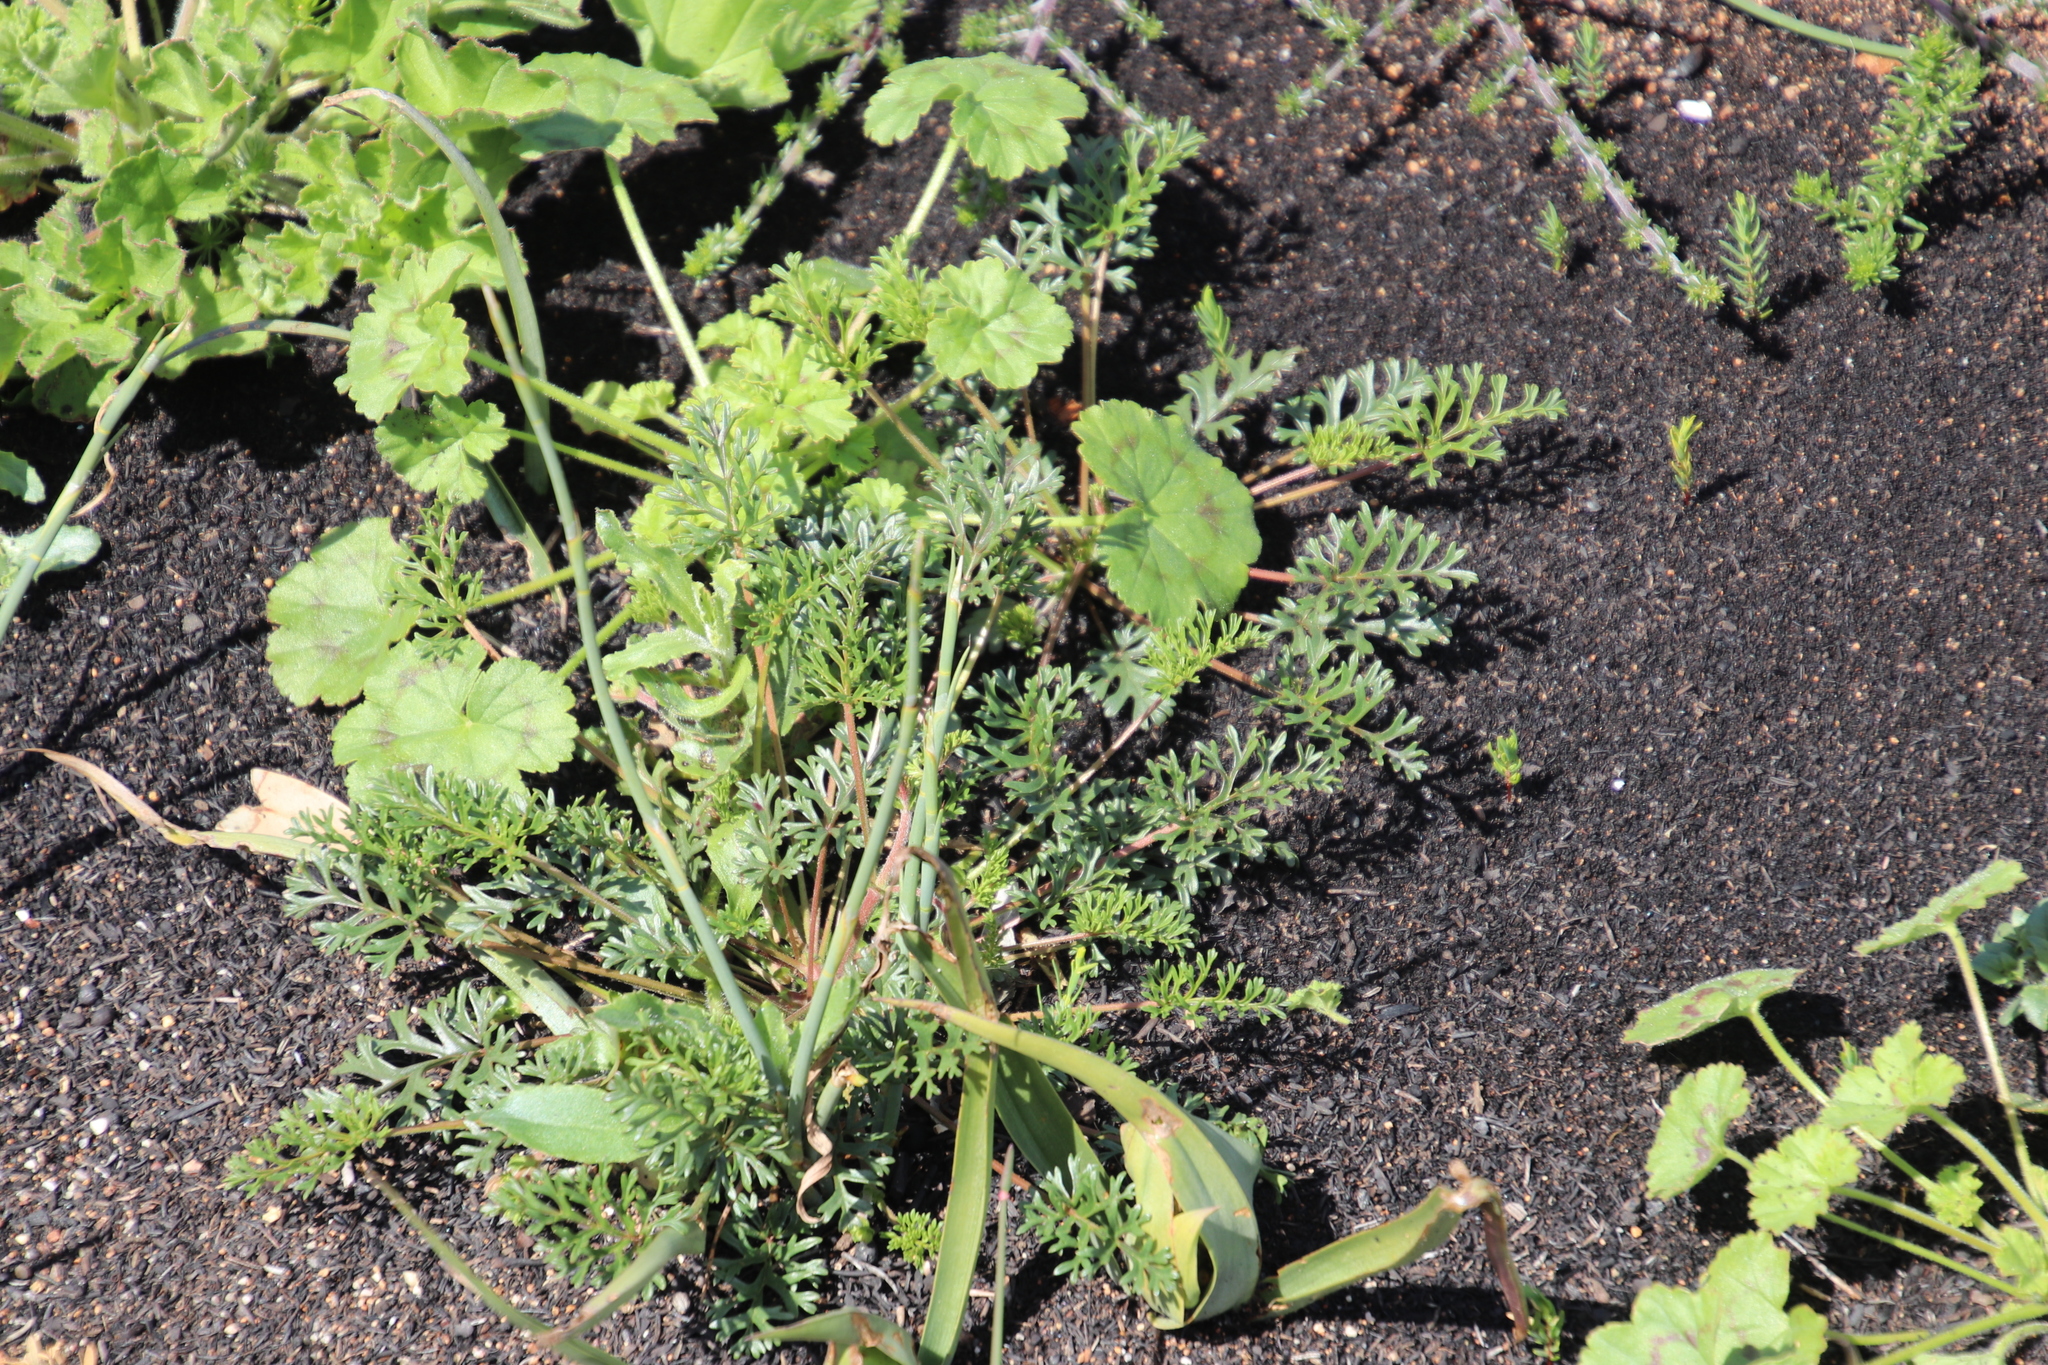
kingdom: Plantae
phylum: Tracheophyta
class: Magnoliopsida
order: Geraniales
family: Geraniaceae
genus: Pelargonium
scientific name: Pelargonium myrrhifolium
